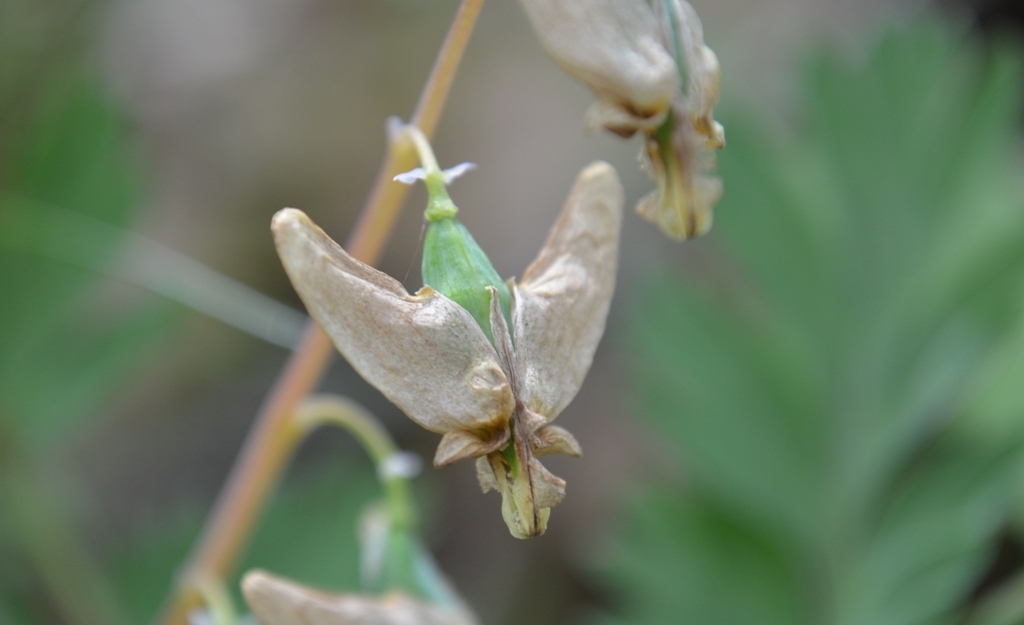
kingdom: Plantae
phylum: Tracheophyta
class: Magnoliopsida
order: Ranunculales
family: Papaveraceae
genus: Dicentra
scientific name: Dicentra cucullaria
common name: Dutchman's breeches
